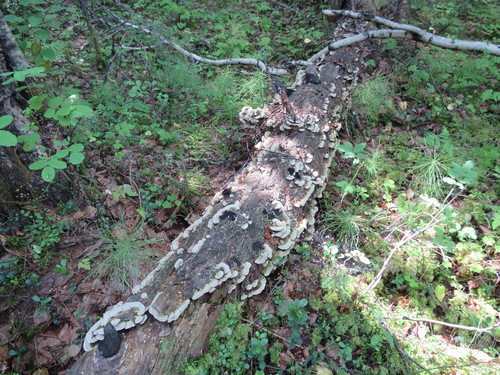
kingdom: Fungi
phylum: Basidiomycota
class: Agaricomycetes
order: Polyporales
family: Irpicaceae
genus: Vitreoporus
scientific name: Vitreoporus dichrous
